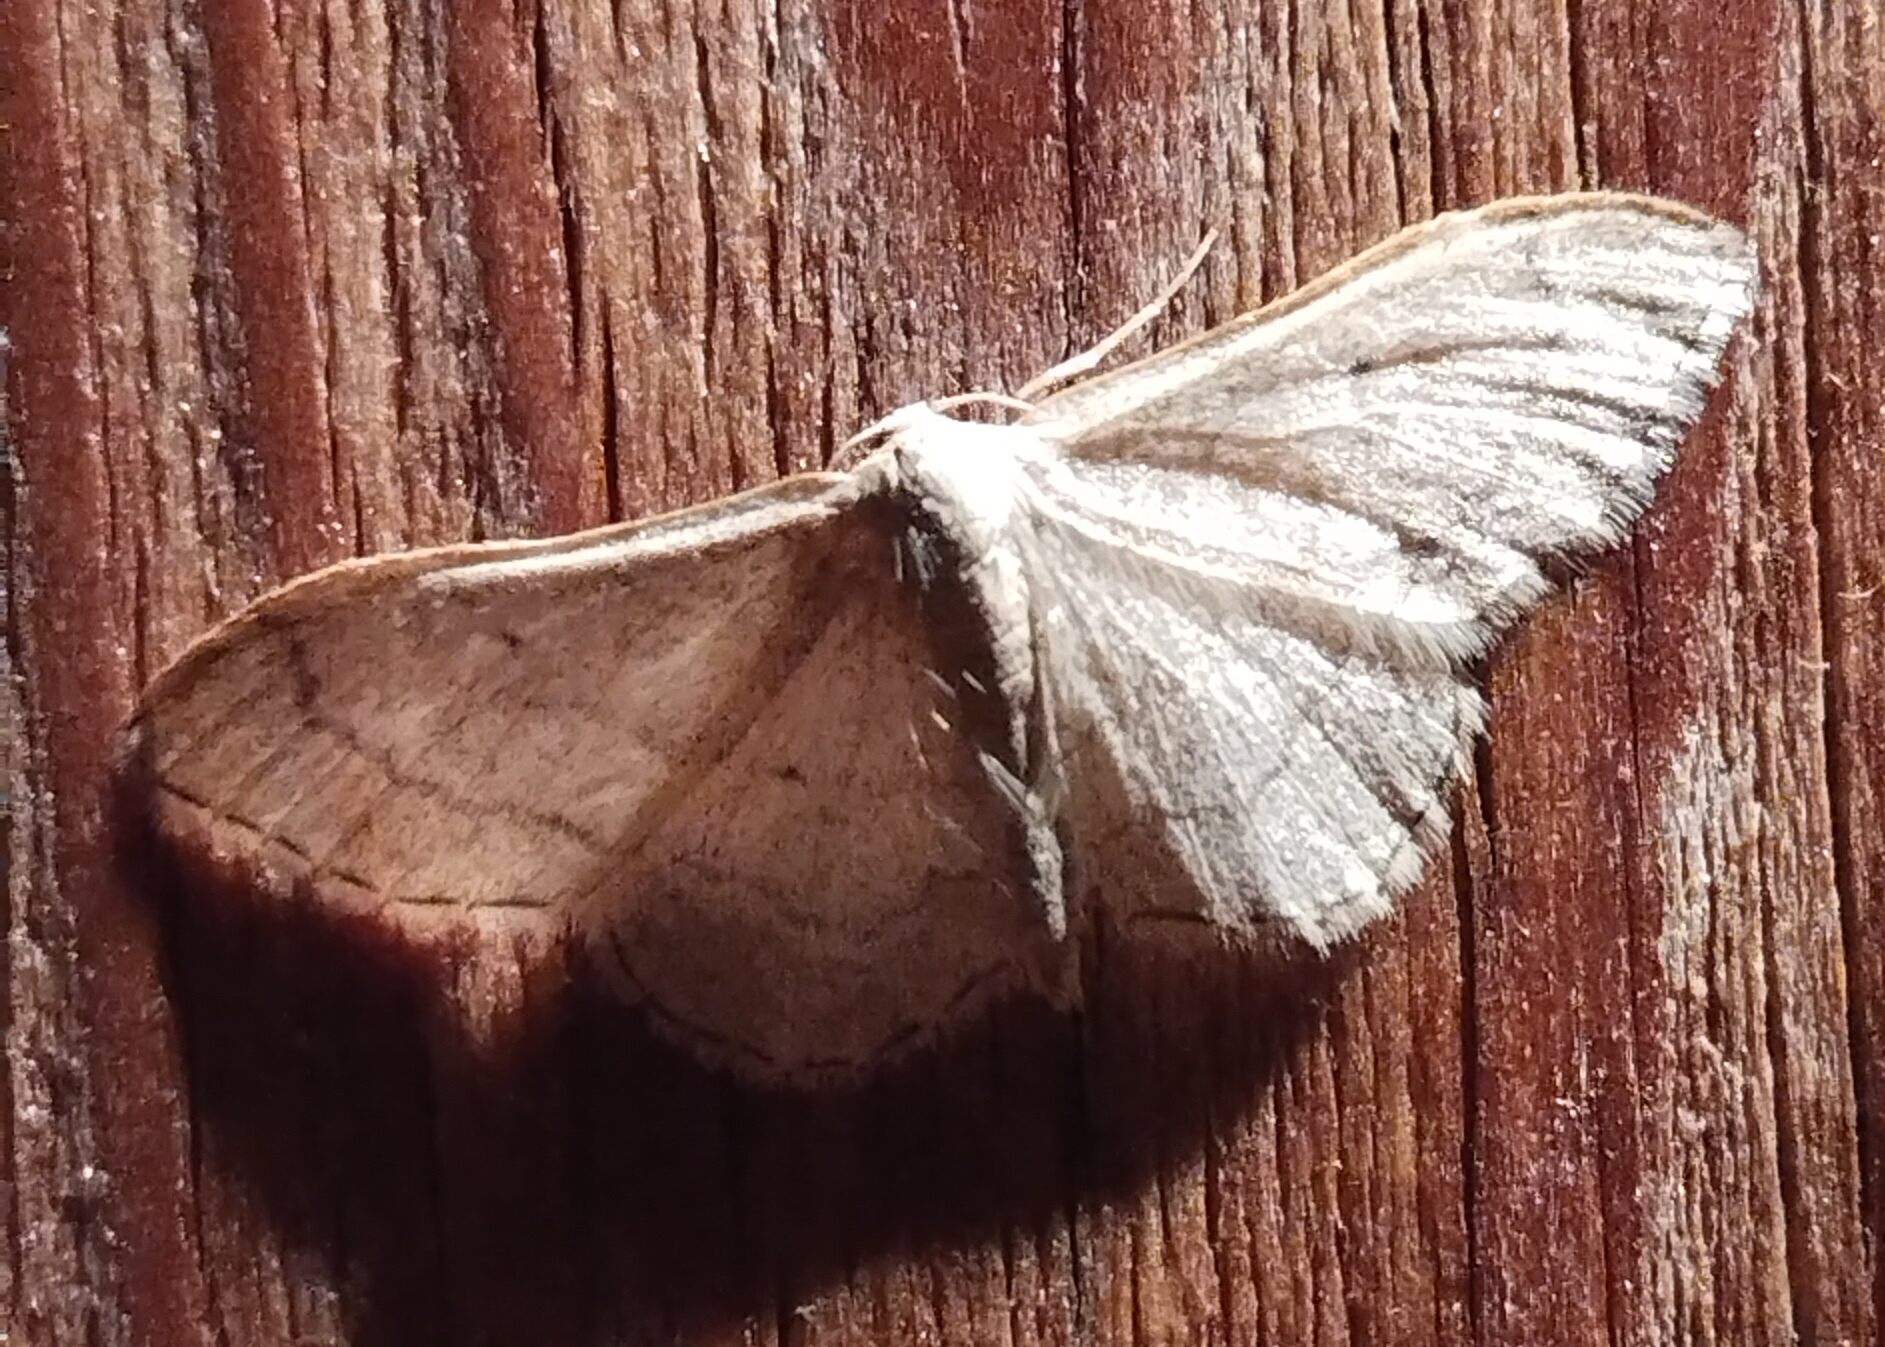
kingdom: Animalia
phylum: Arthropoda
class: Insecta
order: Lepidoptera
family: Geometridae
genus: Idaea
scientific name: Idaea straminata
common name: Plain wave
